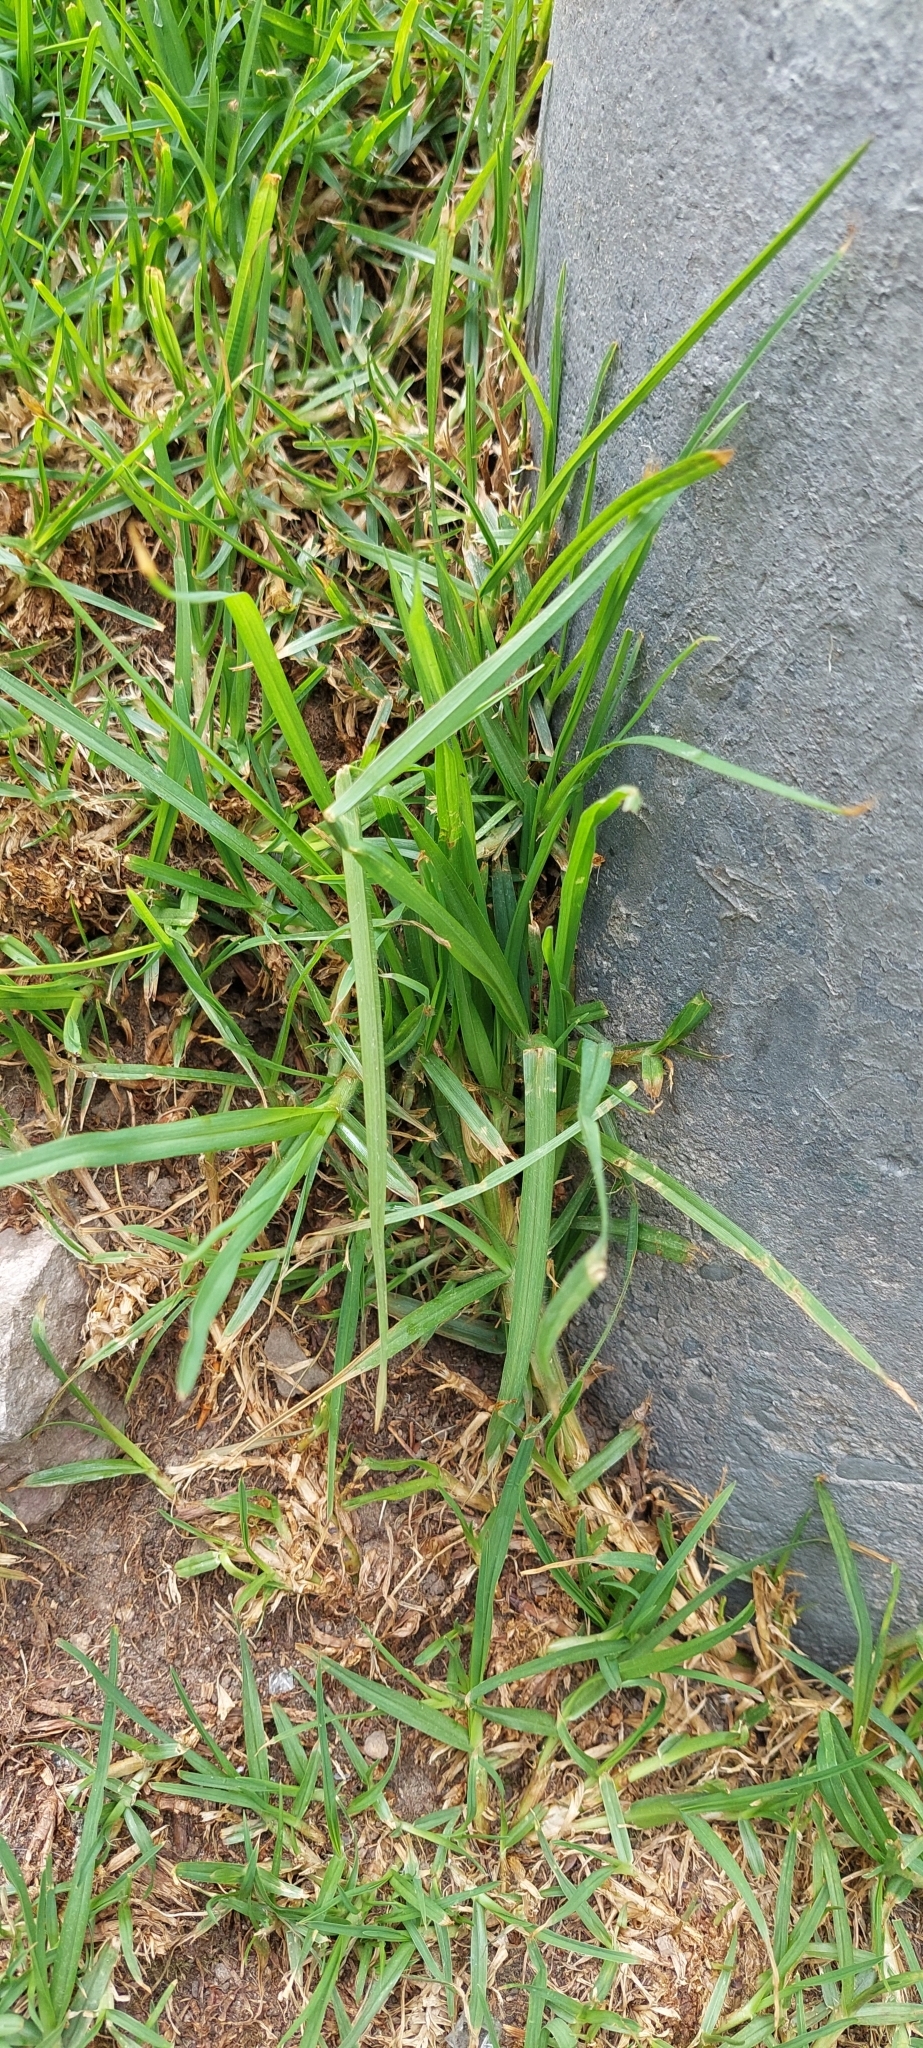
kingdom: Plantae
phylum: Tracheophyta
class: Liliopsida
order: Poales
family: Poaceae
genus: Cenchrus
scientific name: Cenchrus clandestinus
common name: Kikuyugrass
